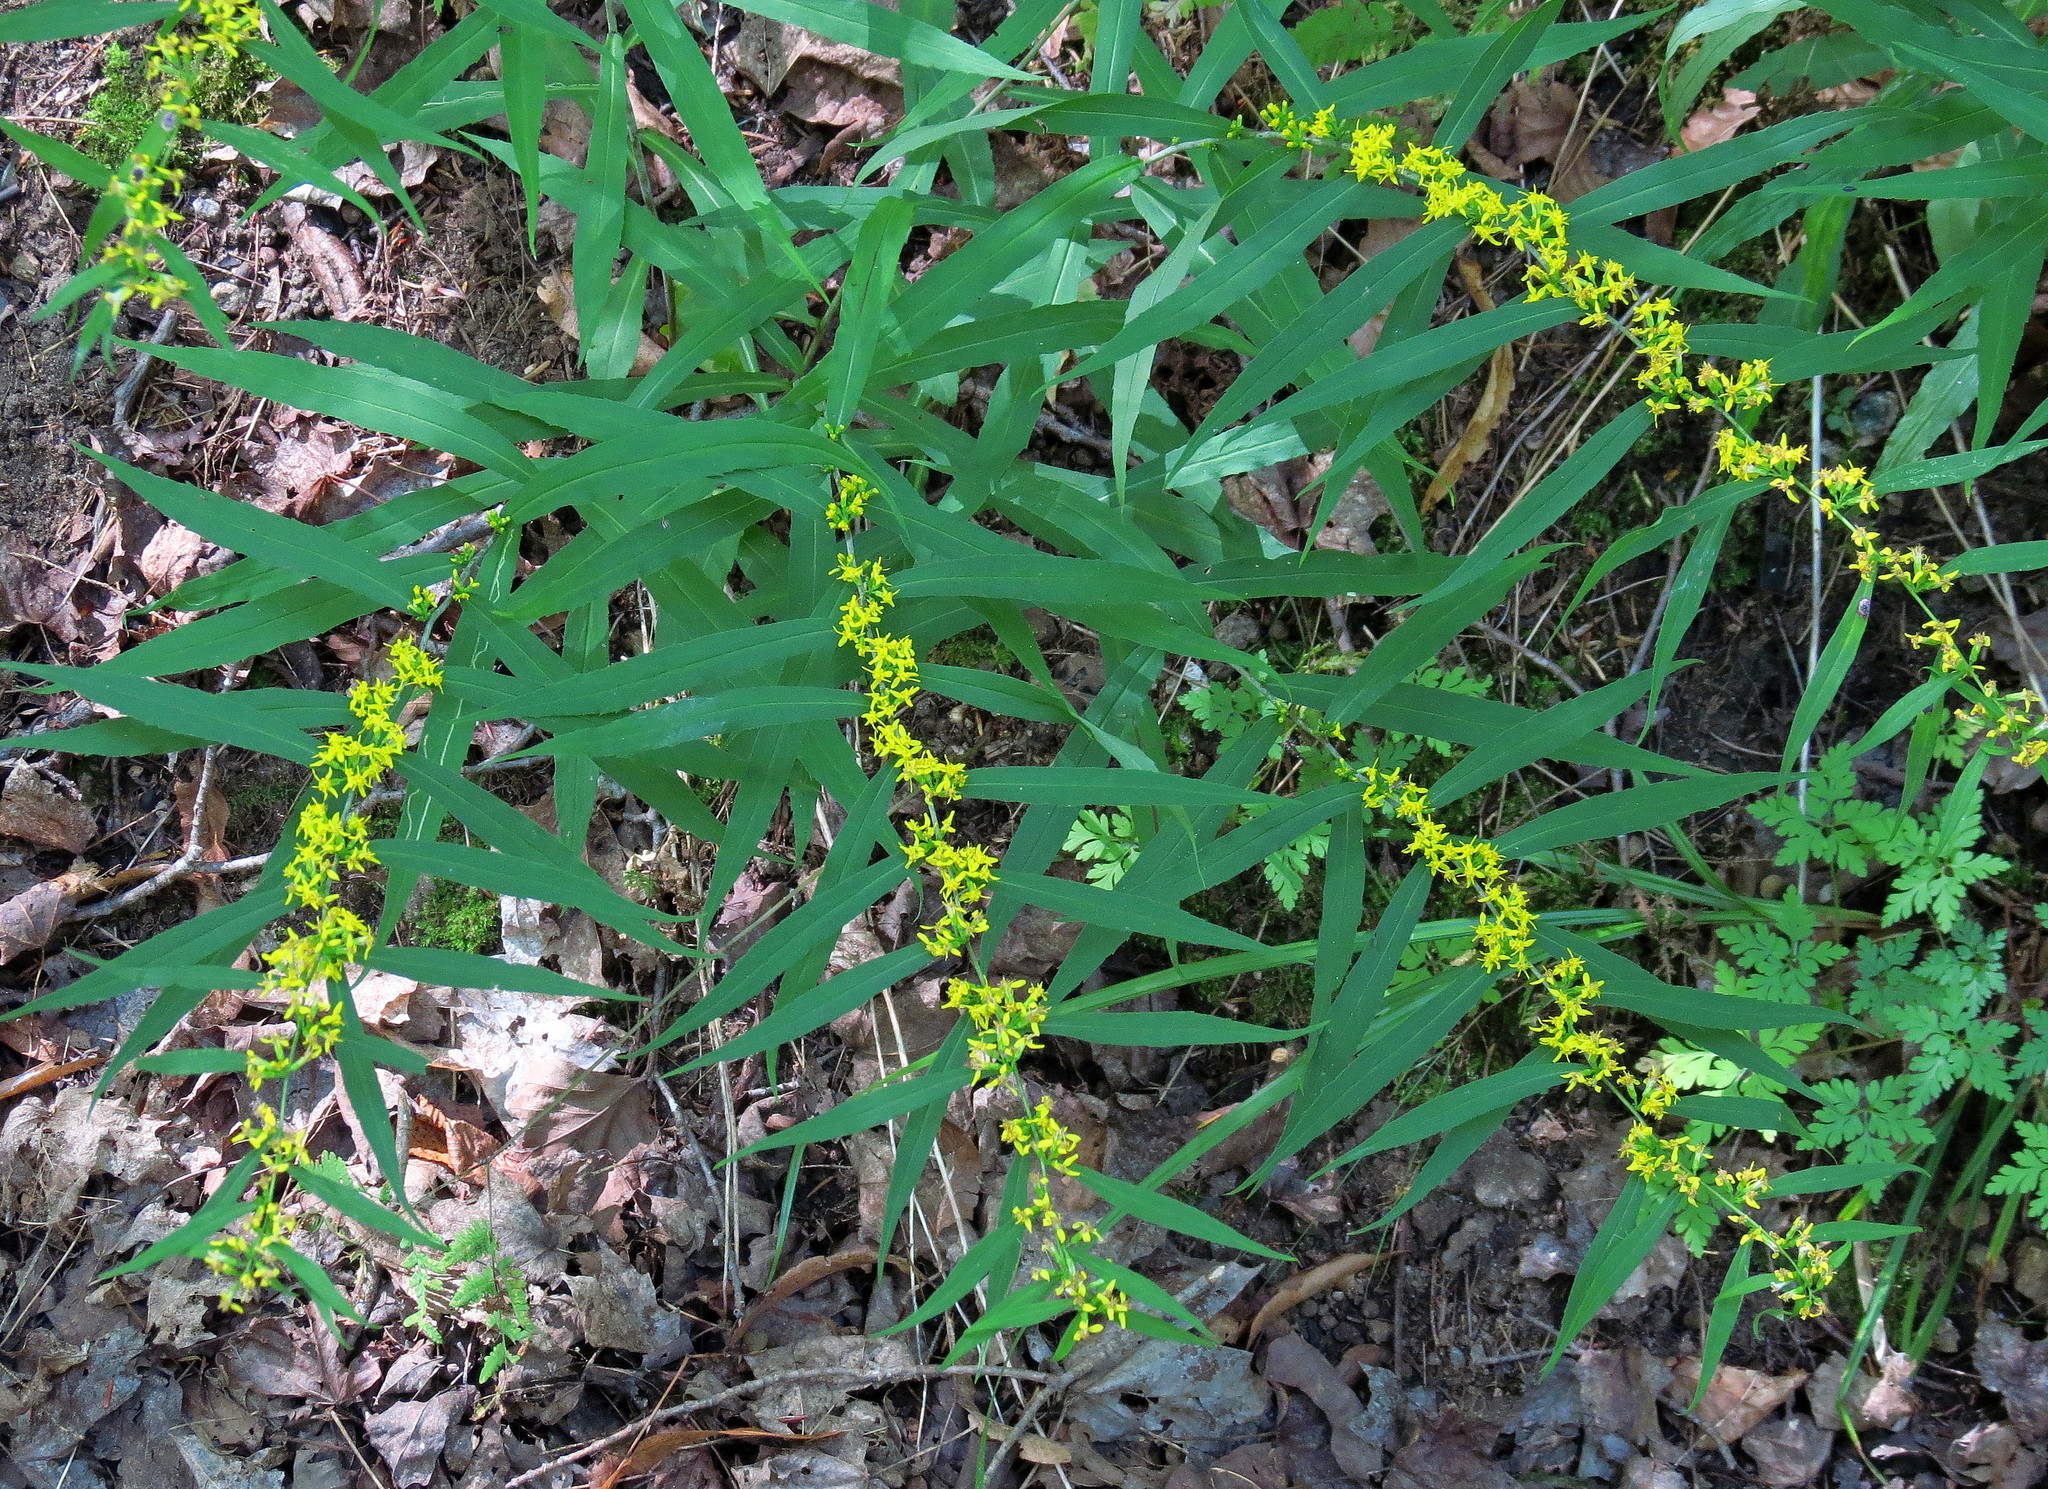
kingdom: Plantae
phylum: Tracheophyta
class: Magnoliopsida
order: Asterales
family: Asteraceae
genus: Solidago
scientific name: Solidago caesia
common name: Woodland goldenrod
